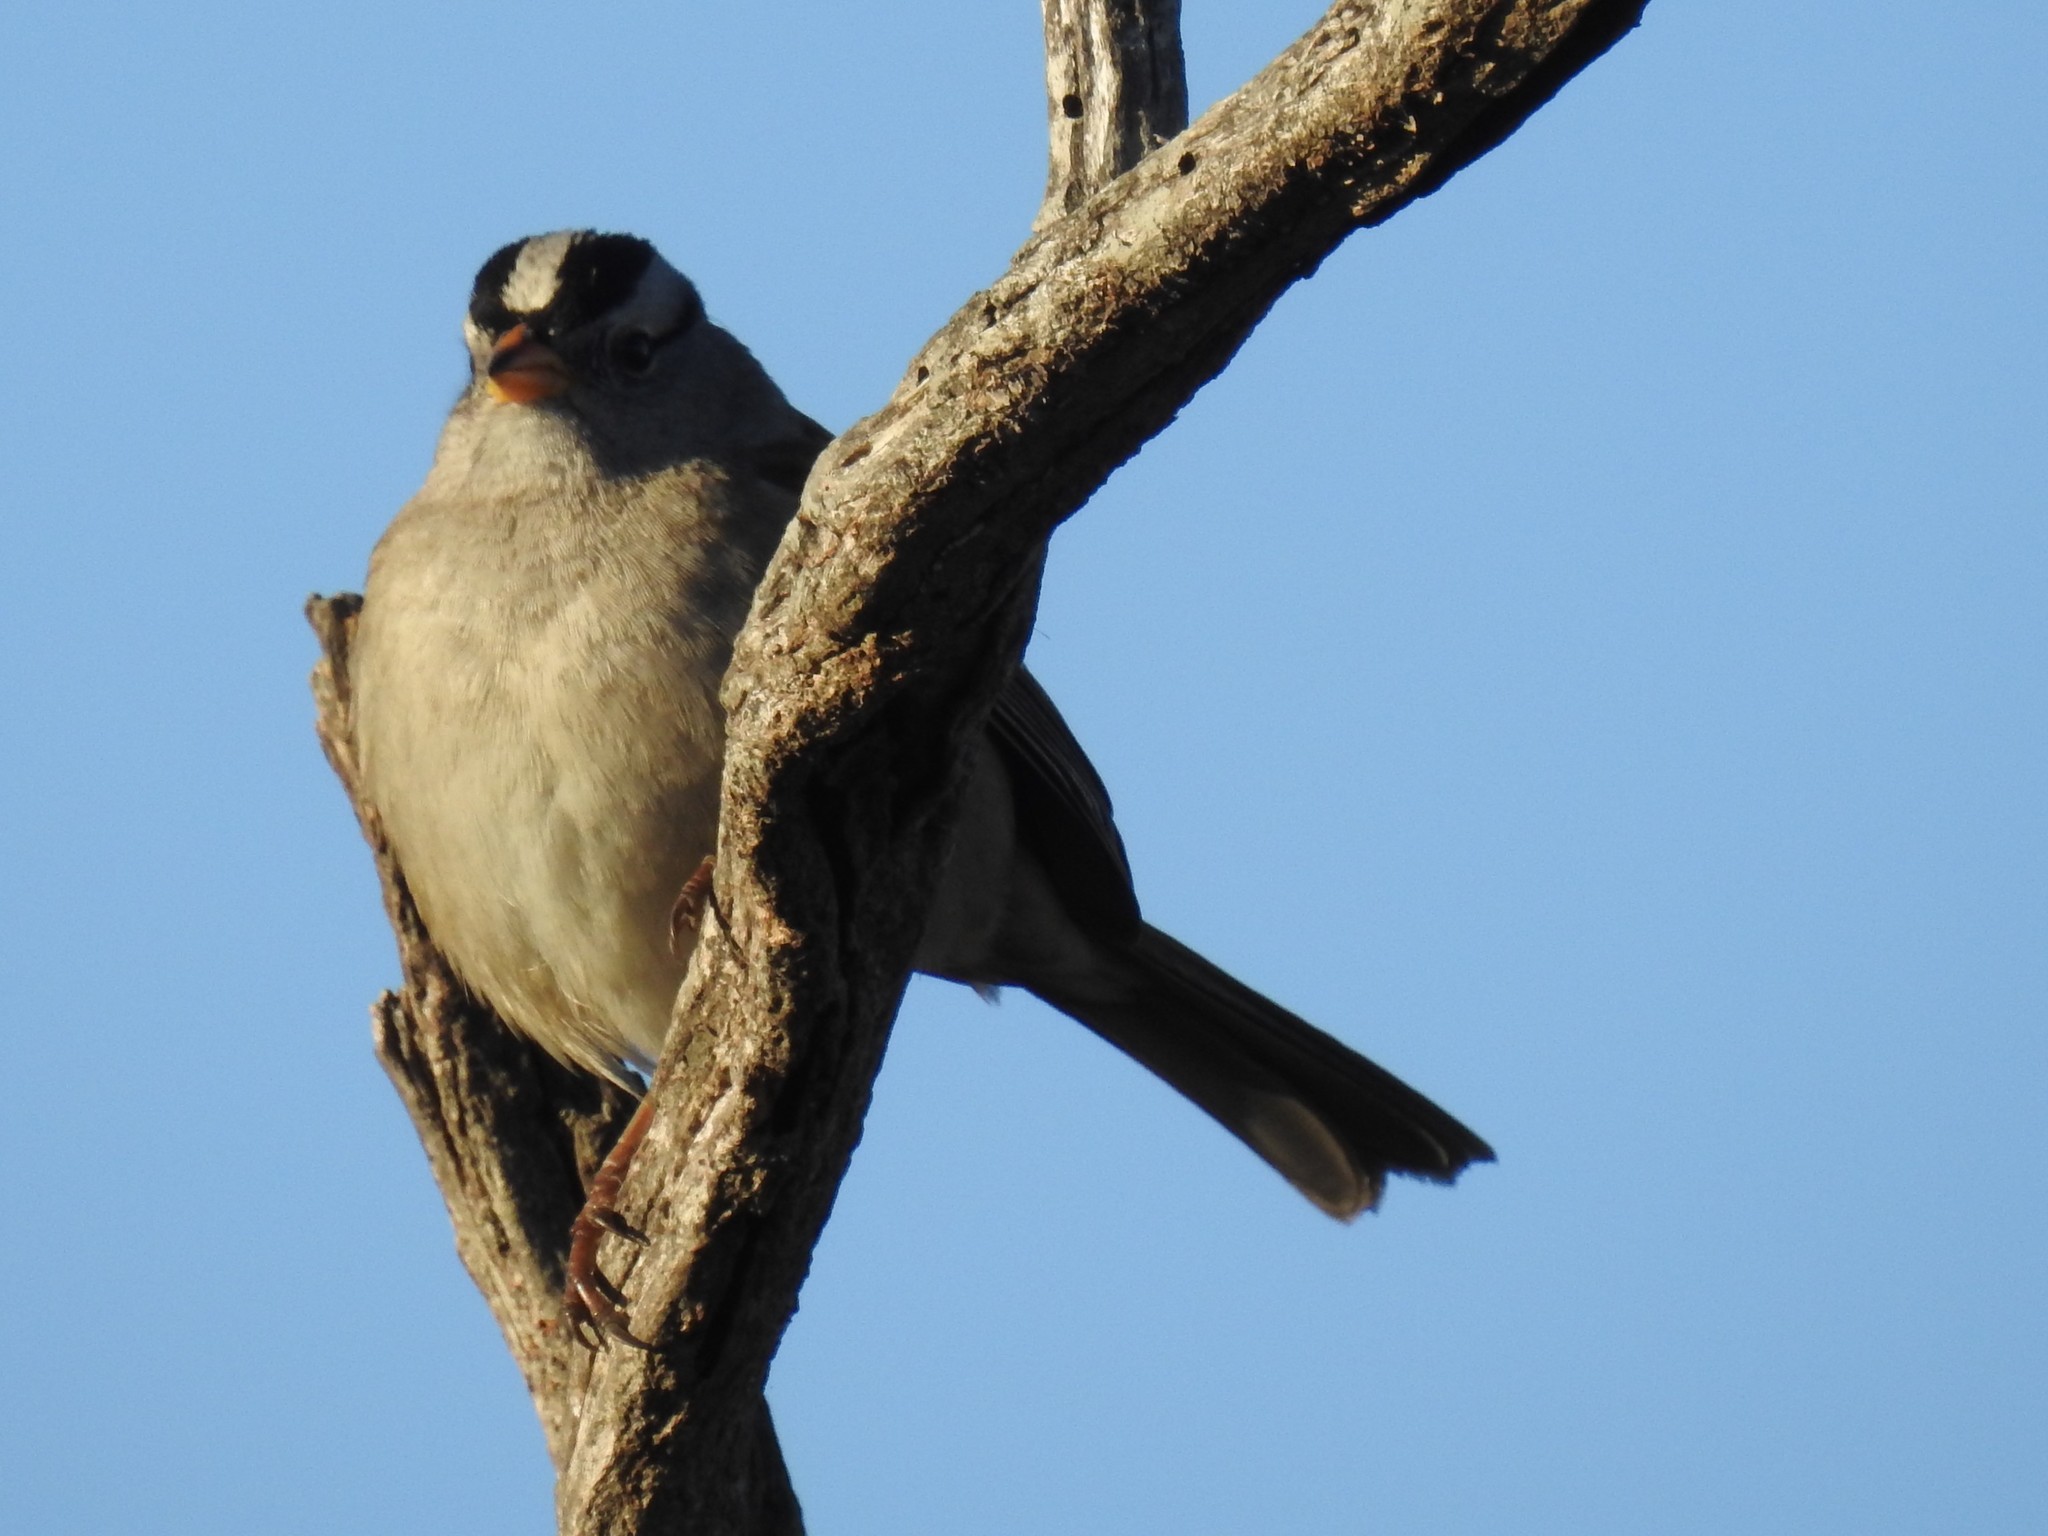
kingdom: Animalia
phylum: Chordata
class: Aves
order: Passeriformes
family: Passerellidae
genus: Zonotrichia
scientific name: Zonotrichia leucophrys
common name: White-crowned sparrow
